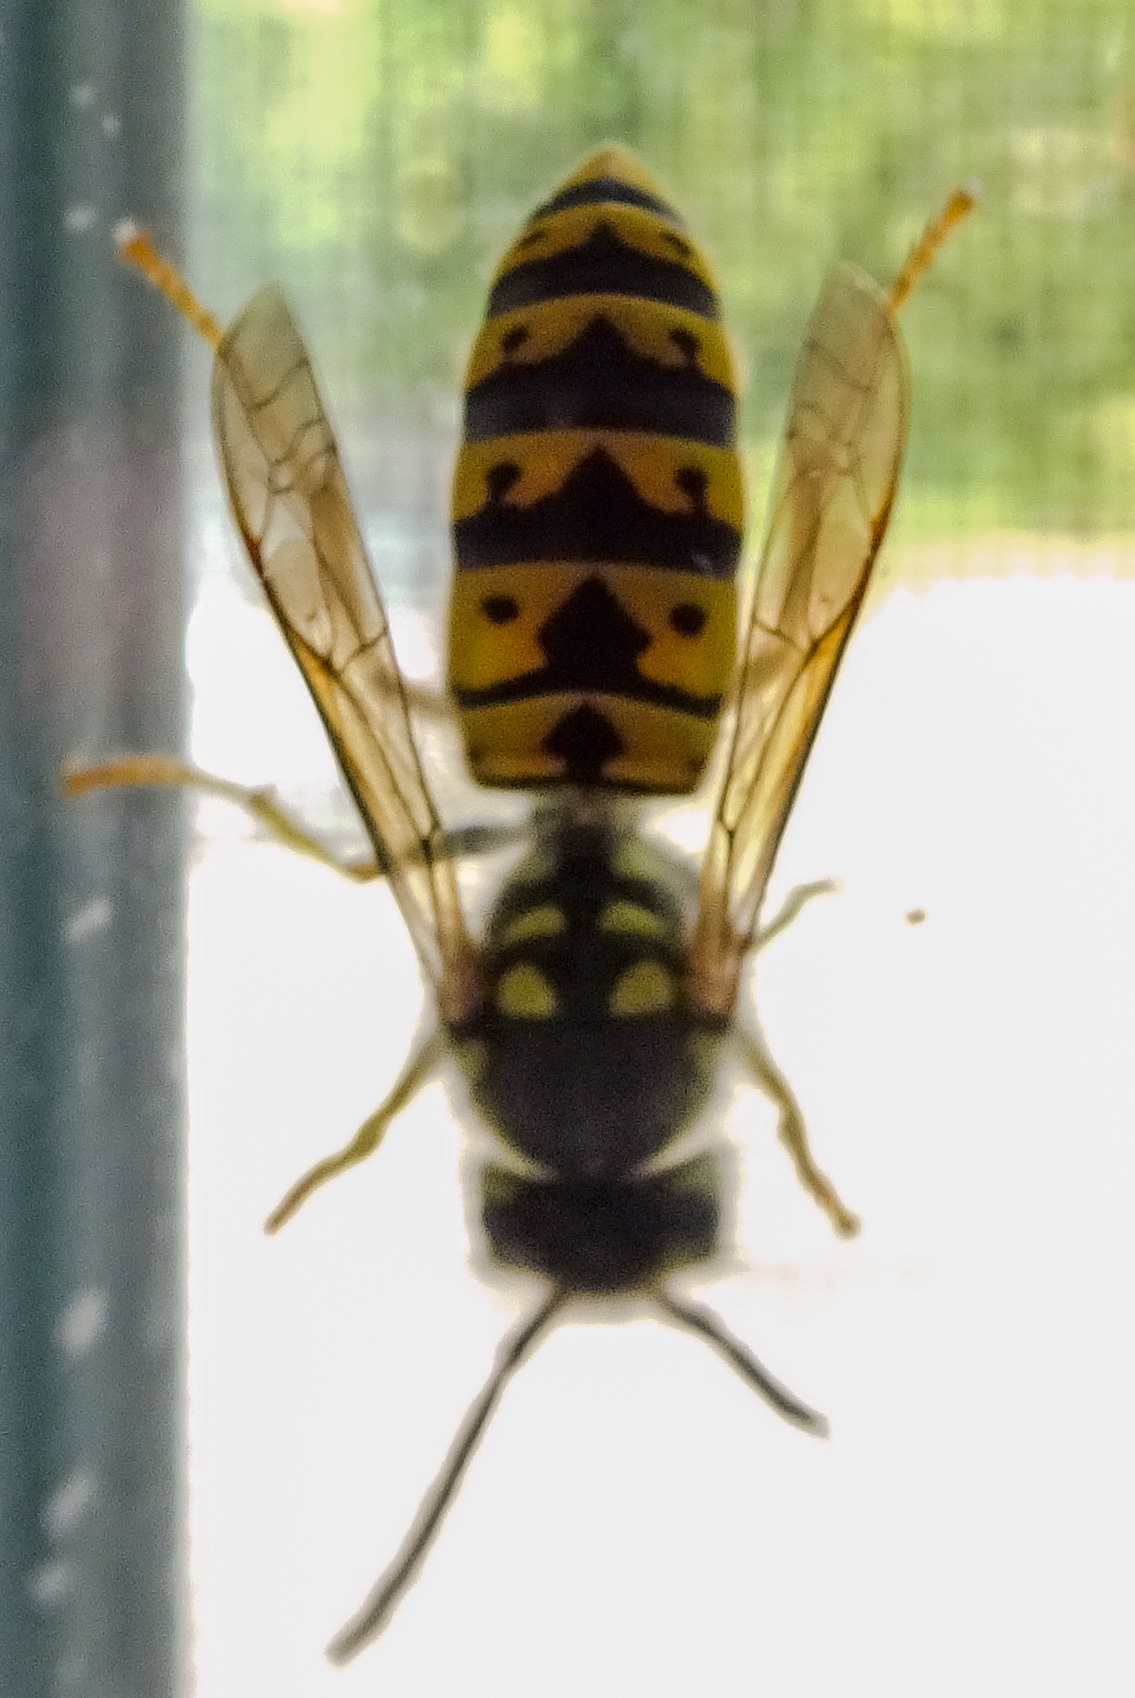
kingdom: Animalia
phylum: Arthropoda
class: Insecta
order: Hymenoptera
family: Vespidae
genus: Vespula
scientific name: Vespula germanica
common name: German wasp
